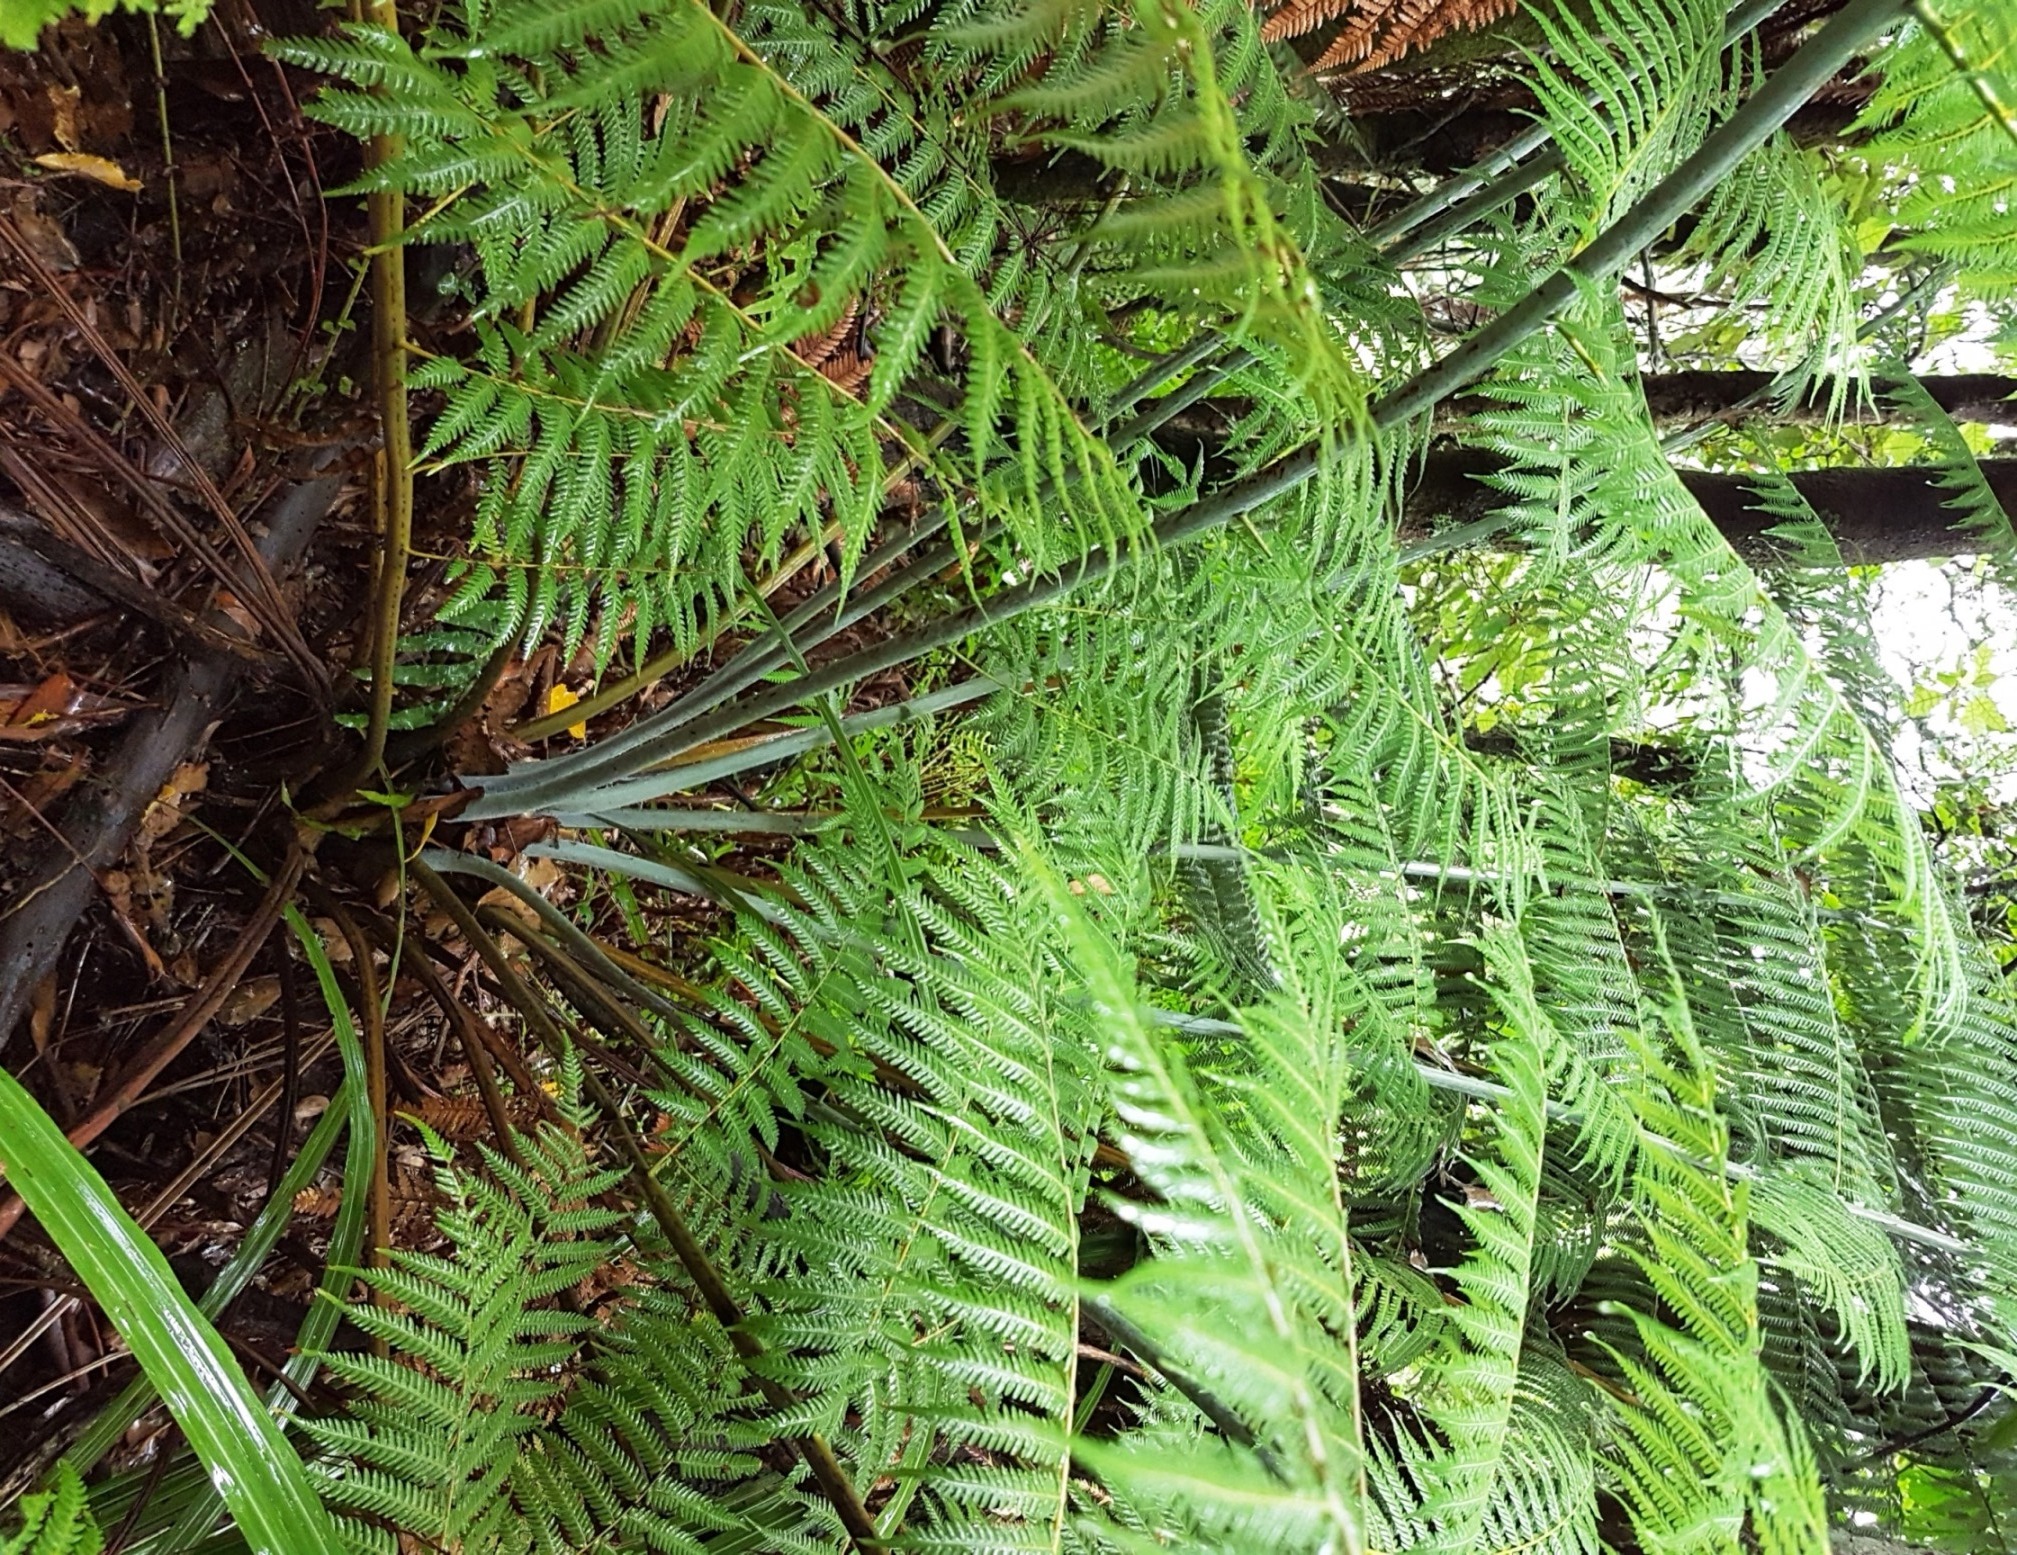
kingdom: Plantae
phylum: Tracheophyta
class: Polypodiopsida
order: Cyatheales
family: Cyatheaceae
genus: Alsophila
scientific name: Alsophila dealbata
